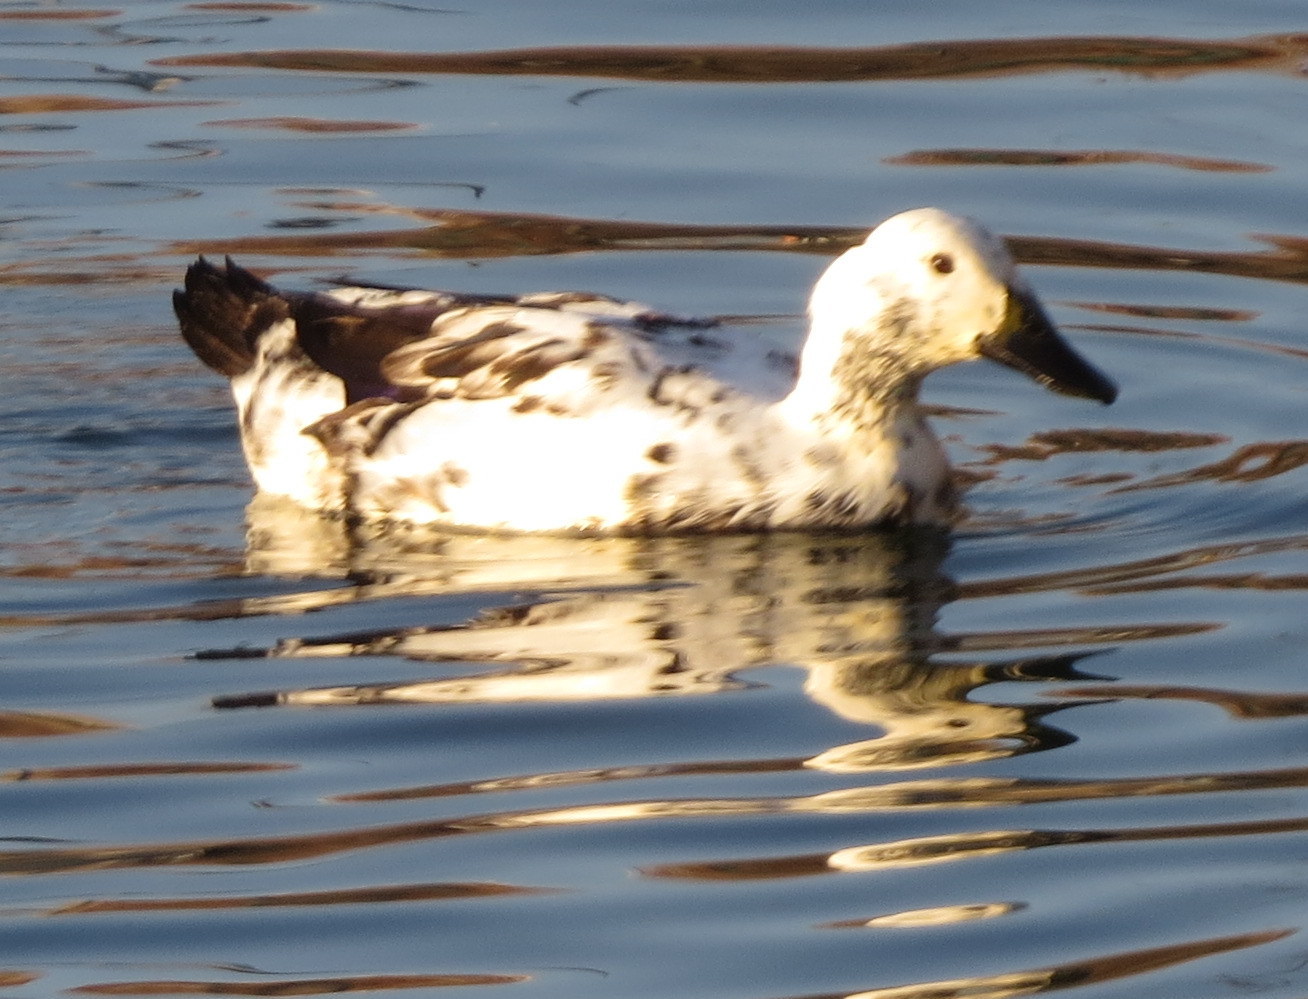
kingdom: Animalia
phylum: Chordata
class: Aves
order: Anseriformes
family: Anatidae
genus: Anas
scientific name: Anas platyrhynchos
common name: Mallard
